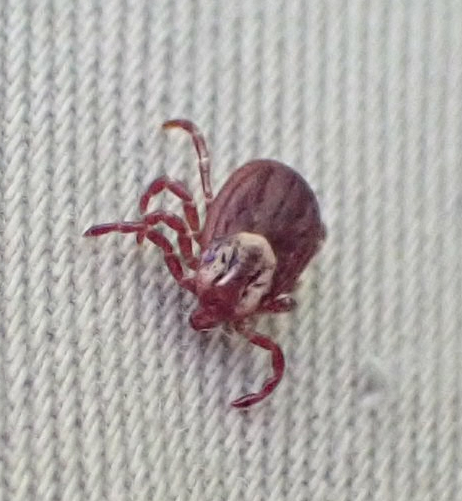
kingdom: Animalia
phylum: Arthropoda
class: Arachnida
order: Ixodida
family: Ixodidae
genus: Dermacentor
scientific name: Dermacentor variabilis
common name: American dog tick
